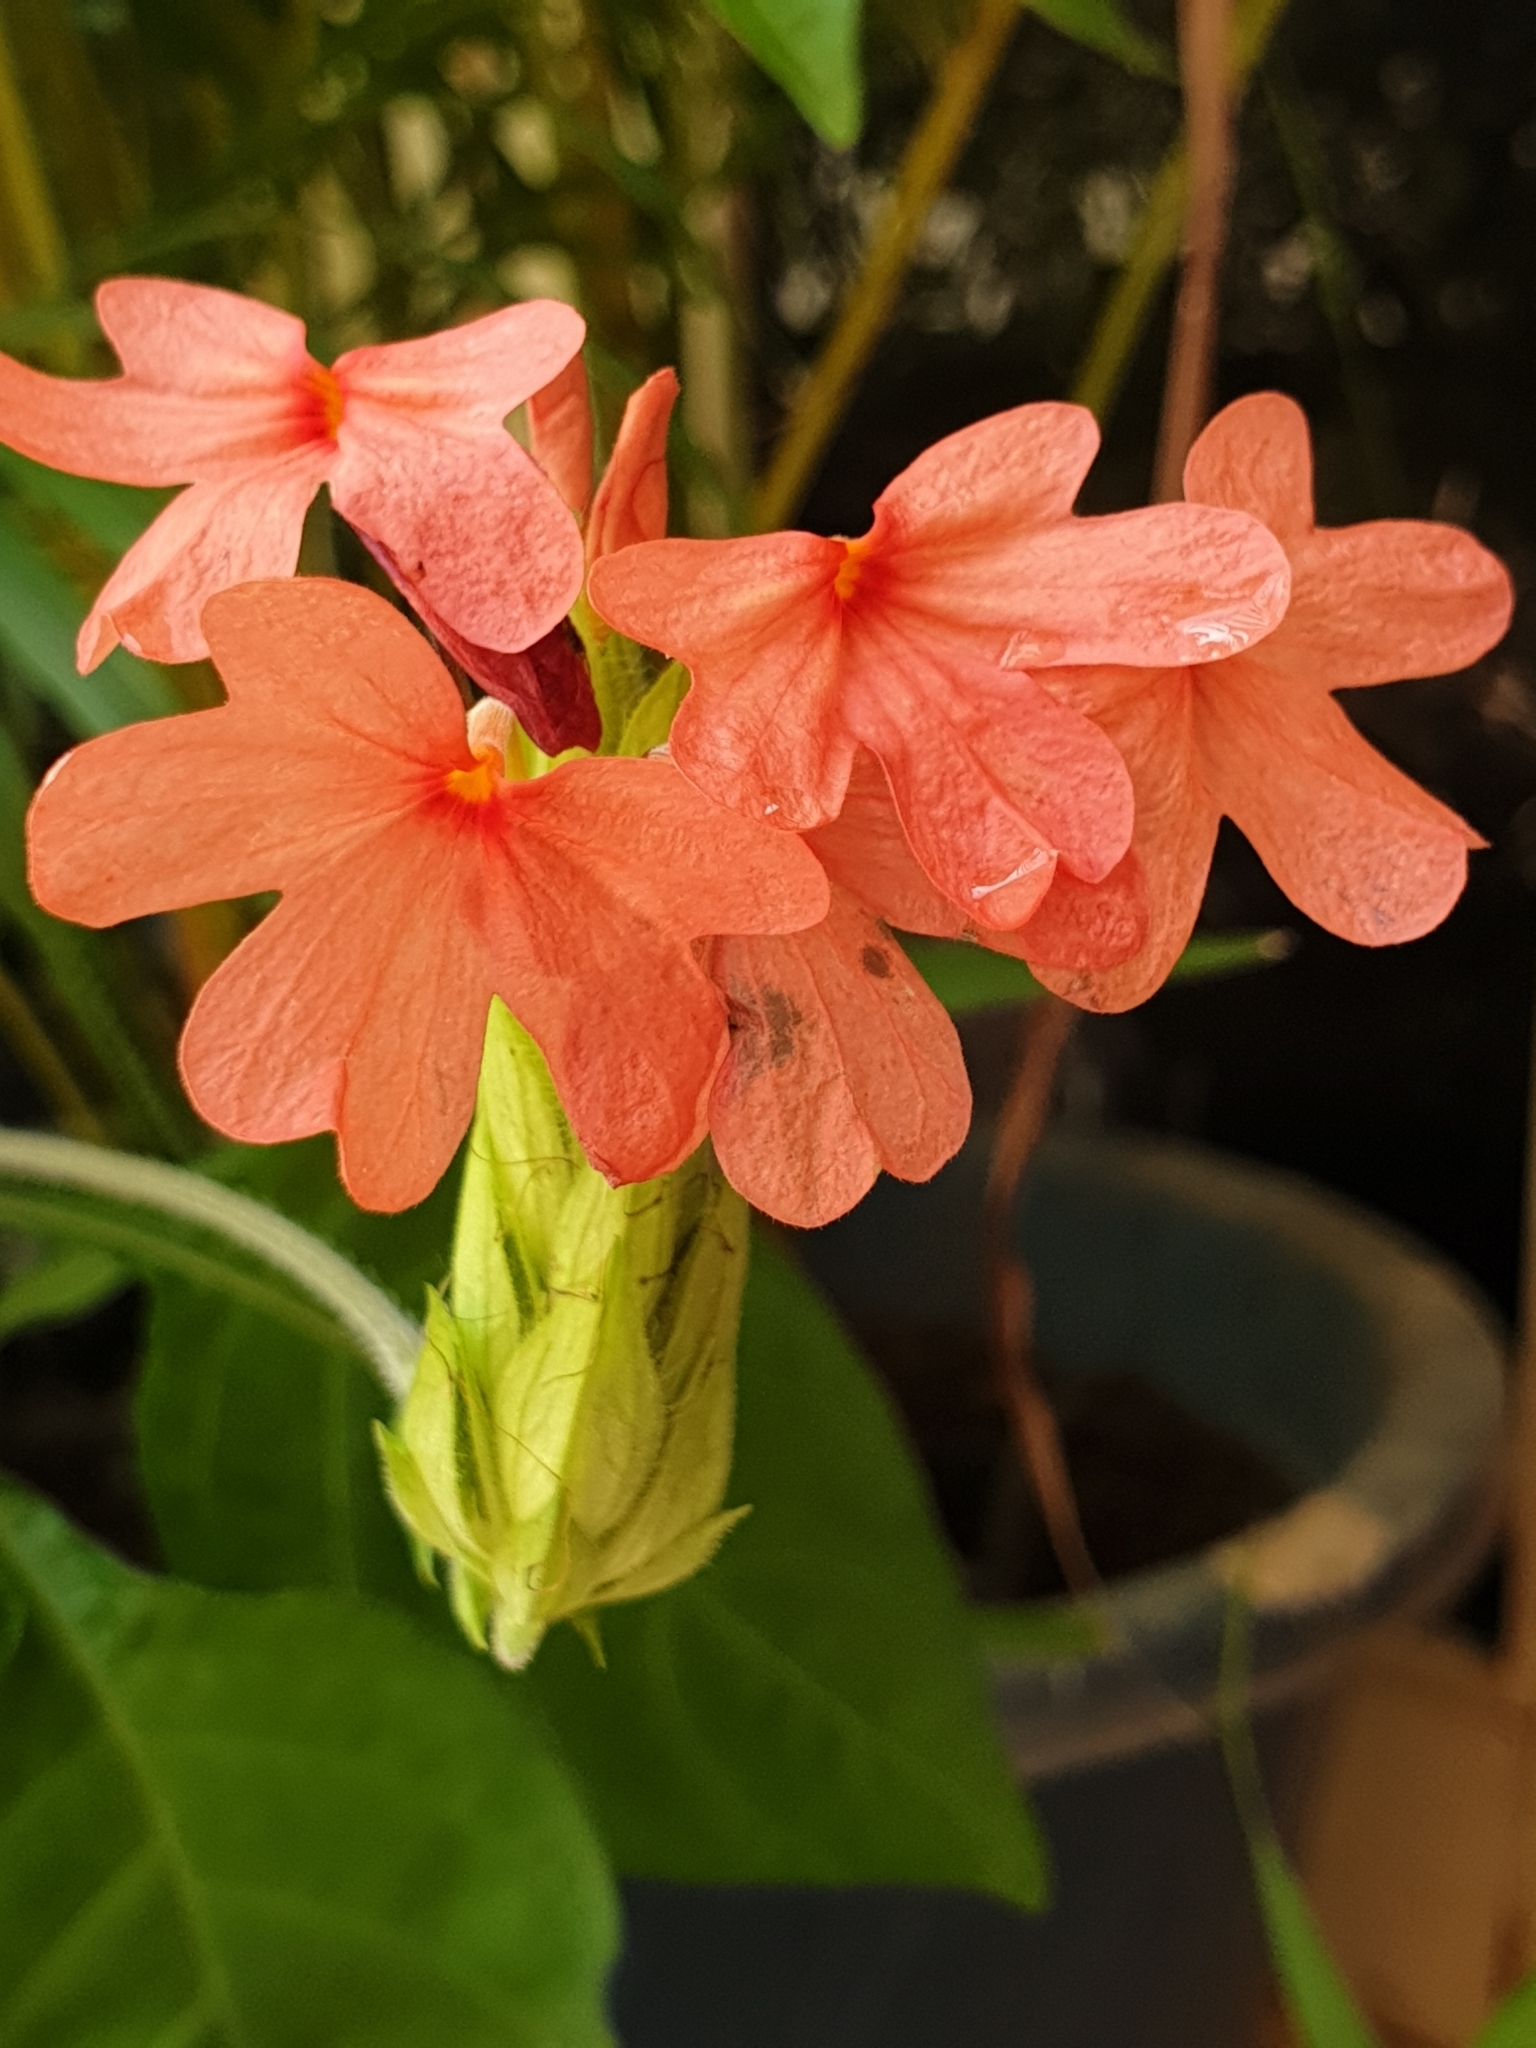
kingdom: Plantae
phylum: Tracheophyta
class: Magnoliopsida
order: Lamiales
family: Acanthaceae
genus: Crossandra
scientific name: Crossandra infundibuliformis
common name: Firecracker-flower
